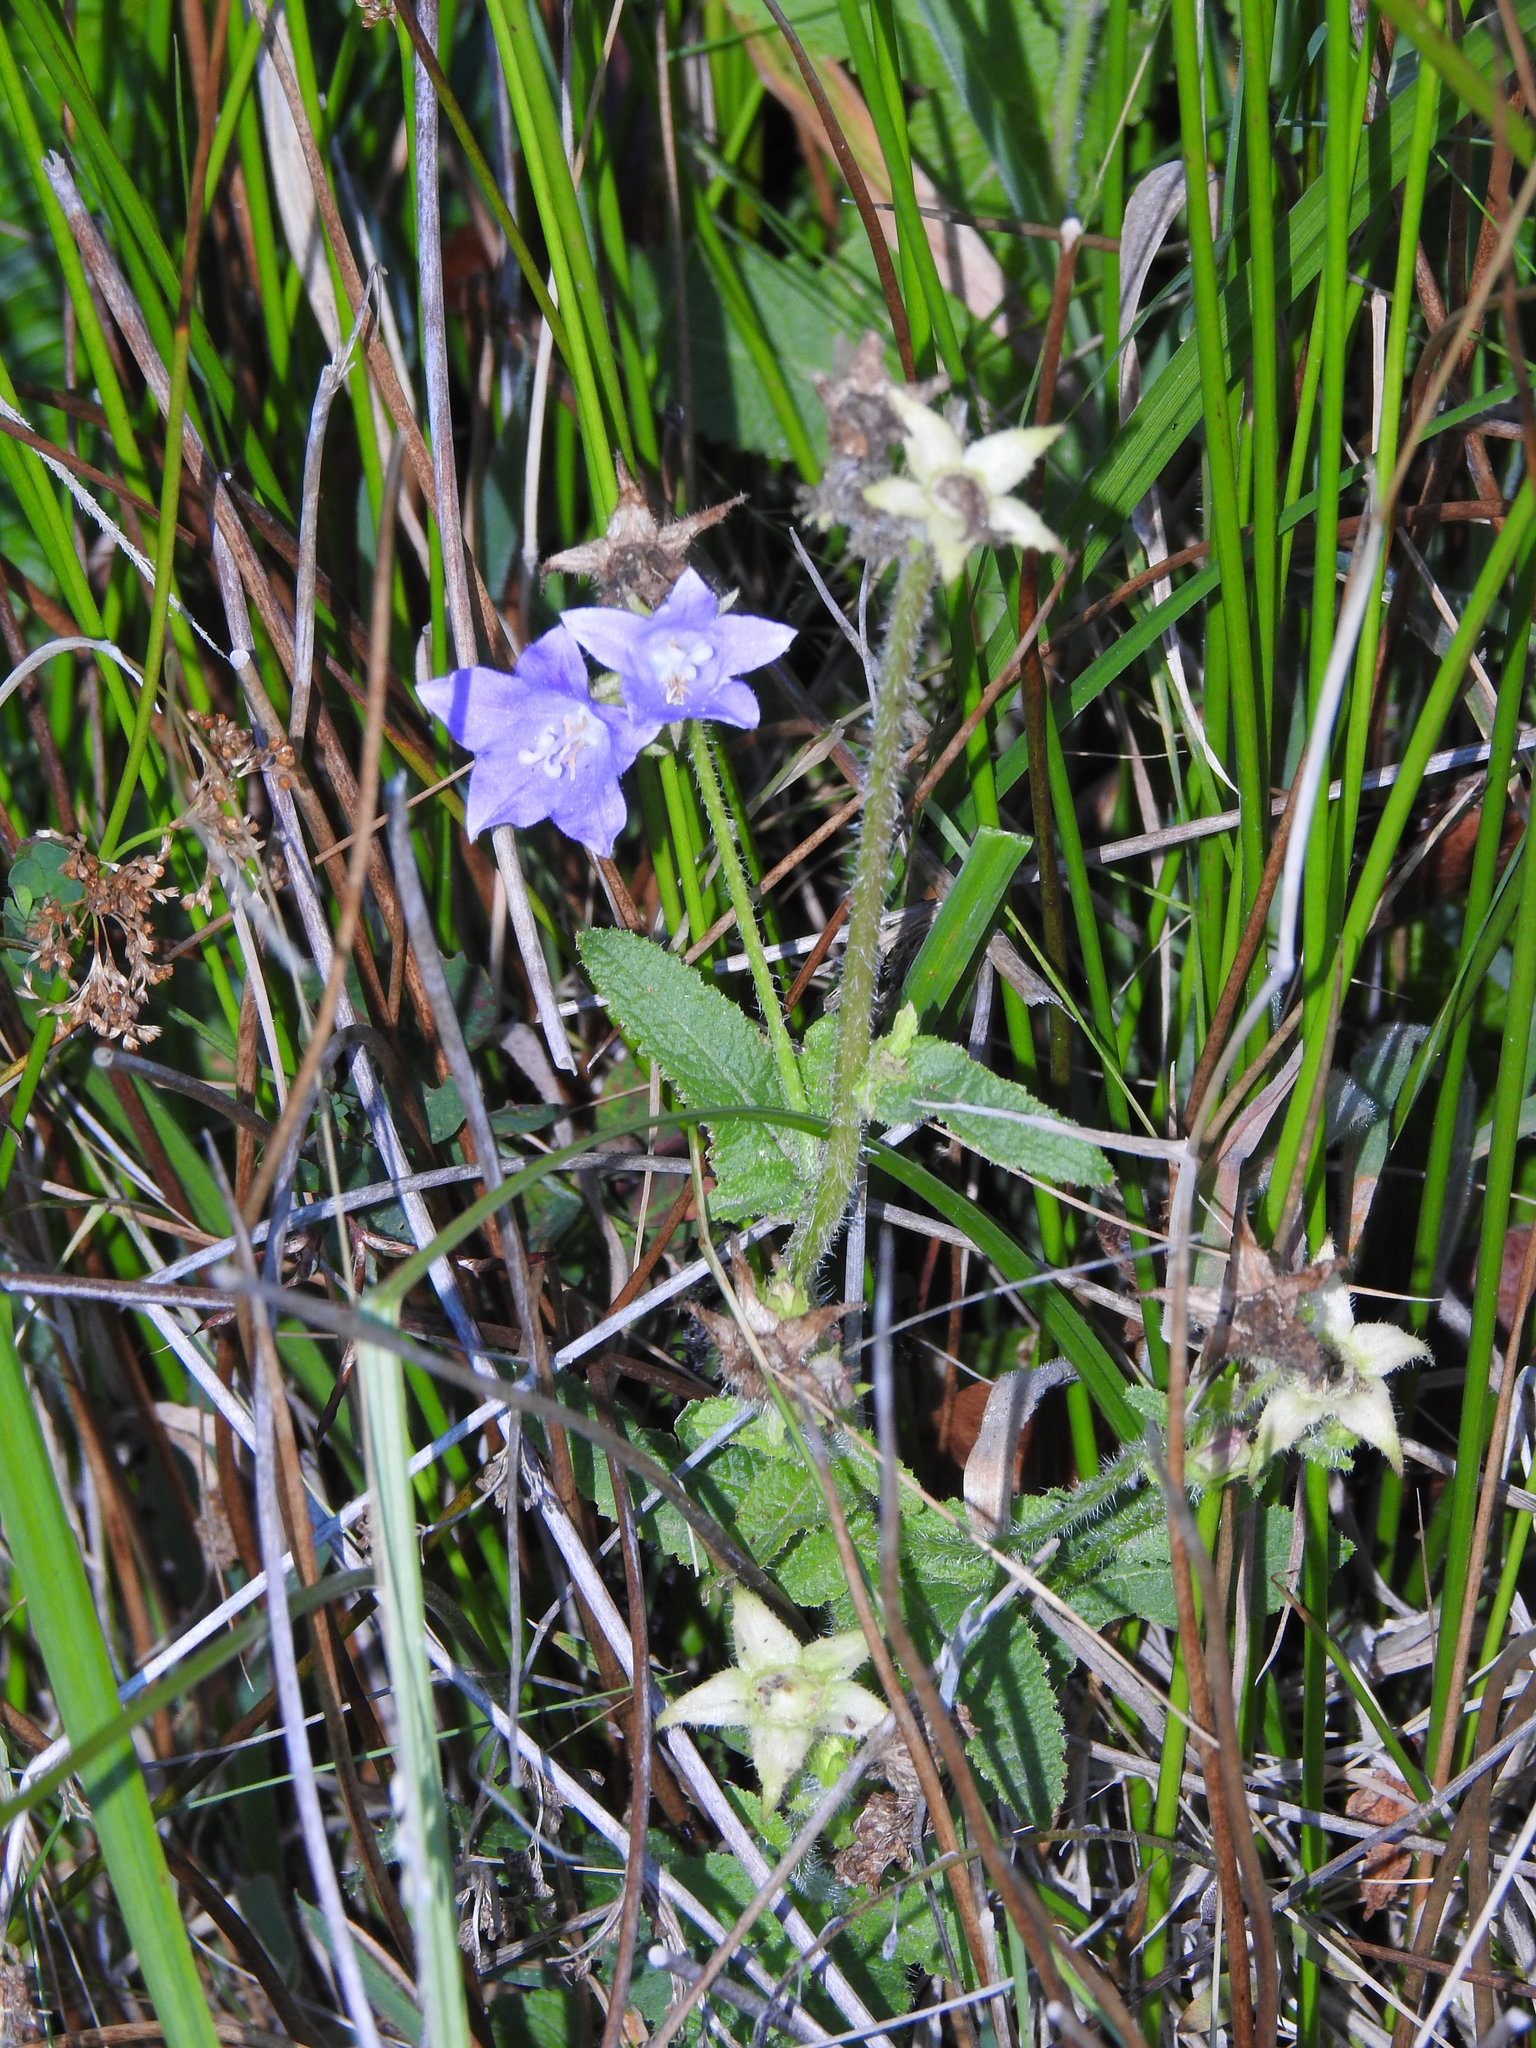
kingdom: Plantae
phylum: Tracheophyta
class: Magnoliopsida
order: Asterales
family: Campanulaceae
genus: Campanula
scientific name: Campanula alata
